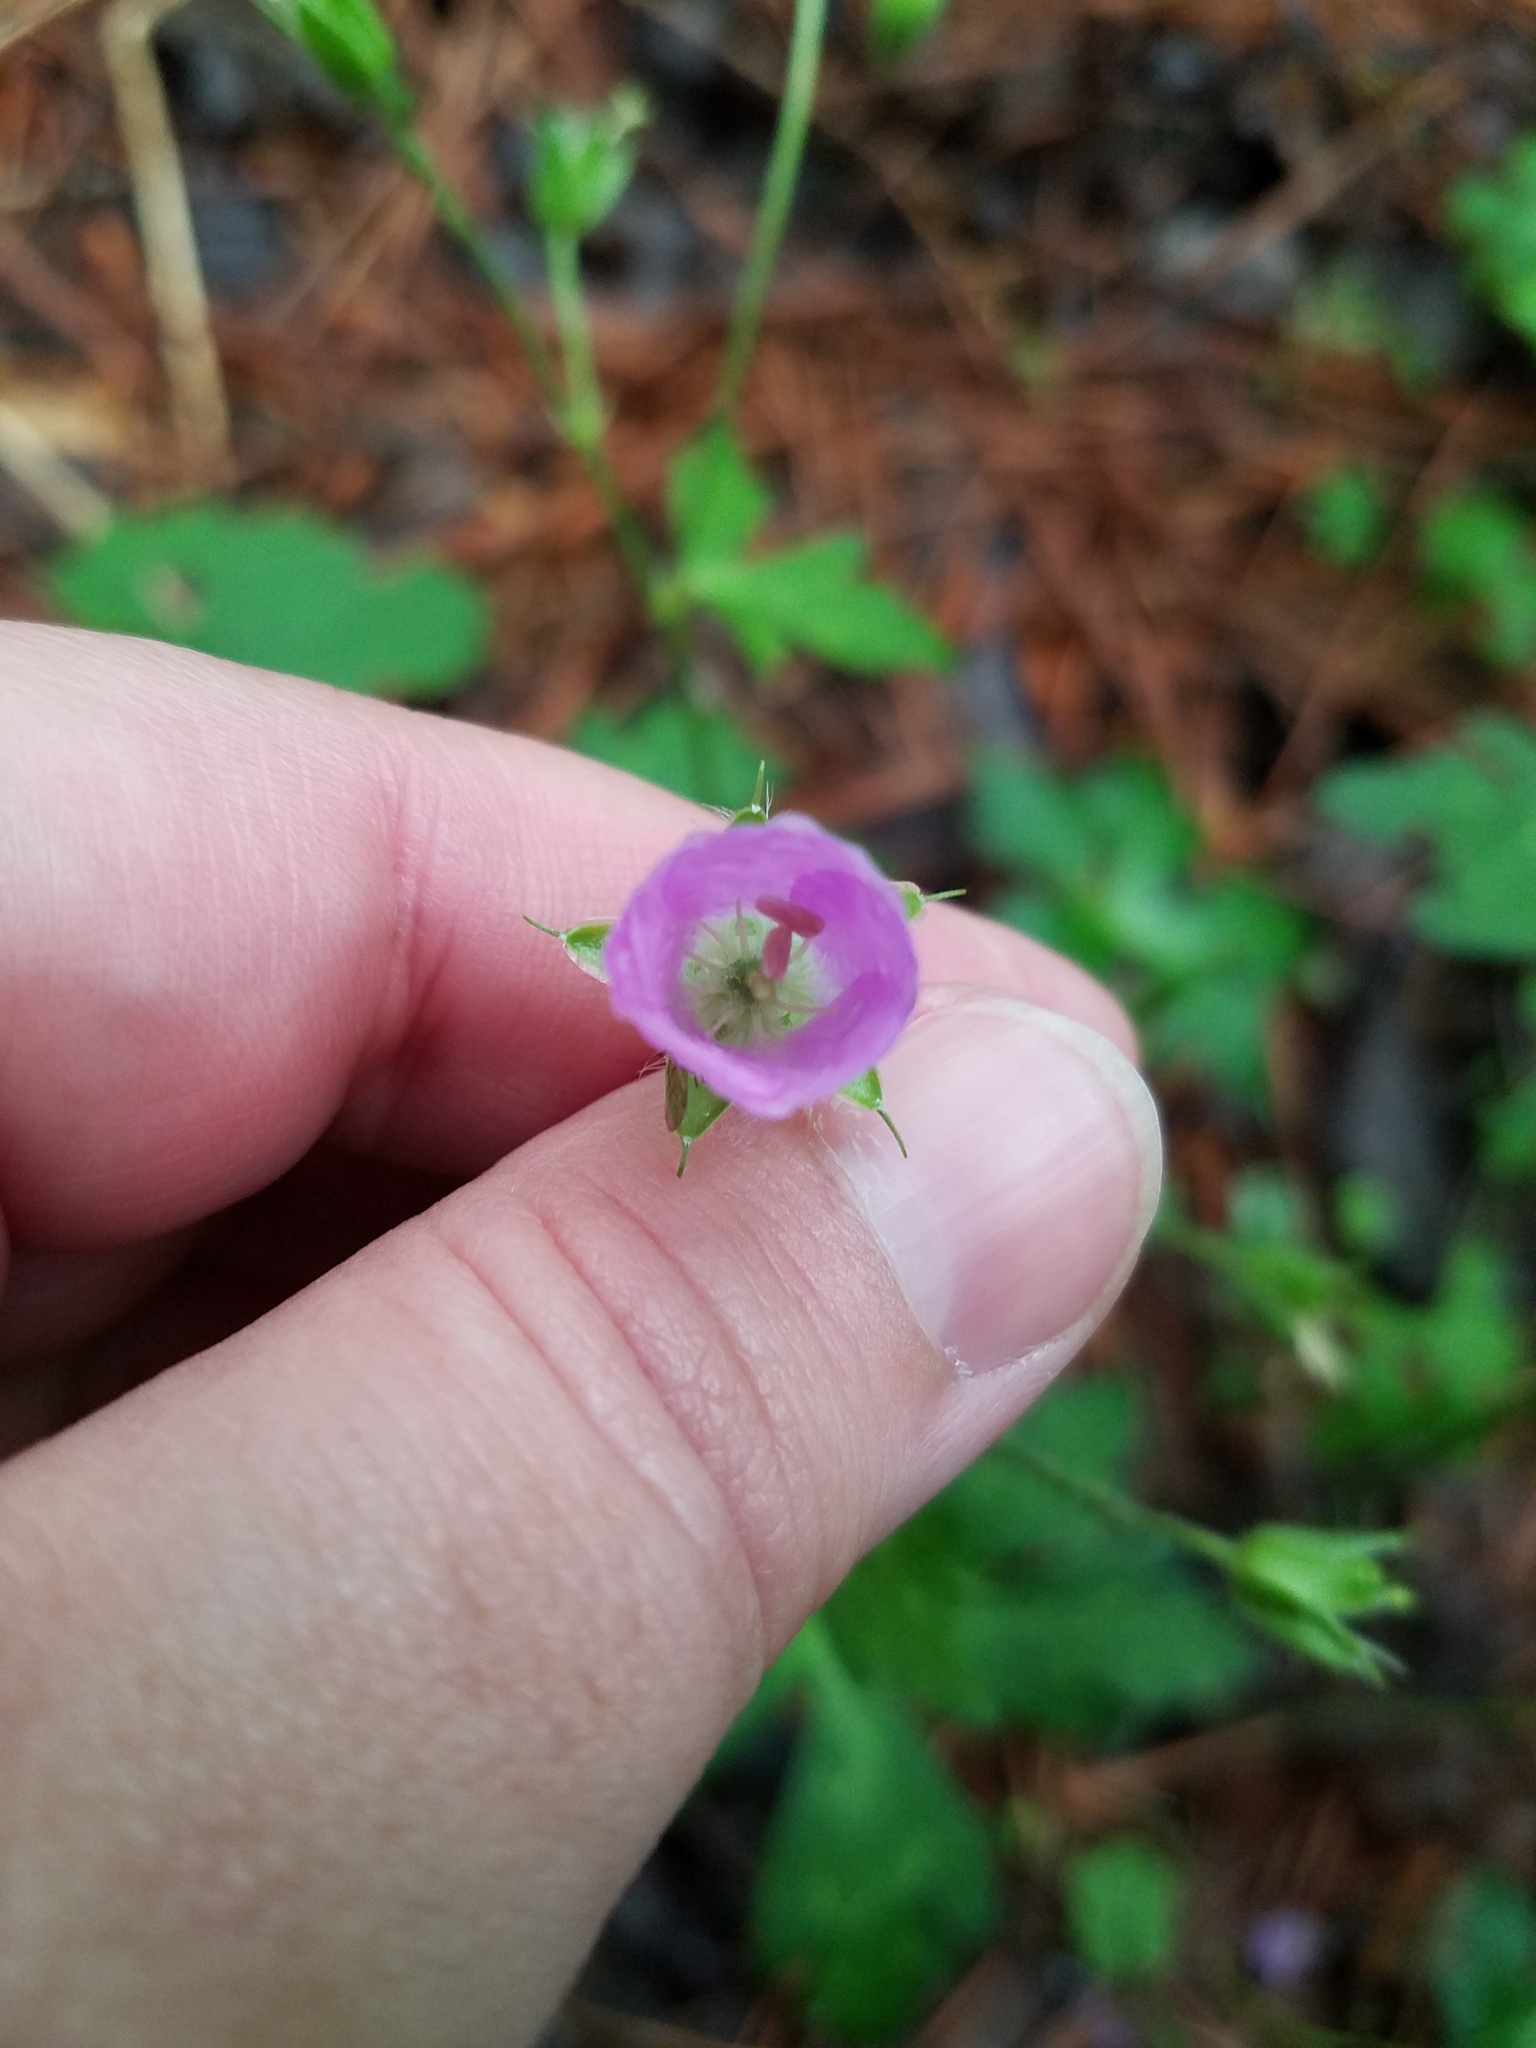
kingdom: Plantae
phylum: Tracheophyta
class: Magnoliopsida
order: Geraniales
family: Geraniaceae
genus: Geranium
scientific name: Geranium maculatum
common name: Spotted geranium
